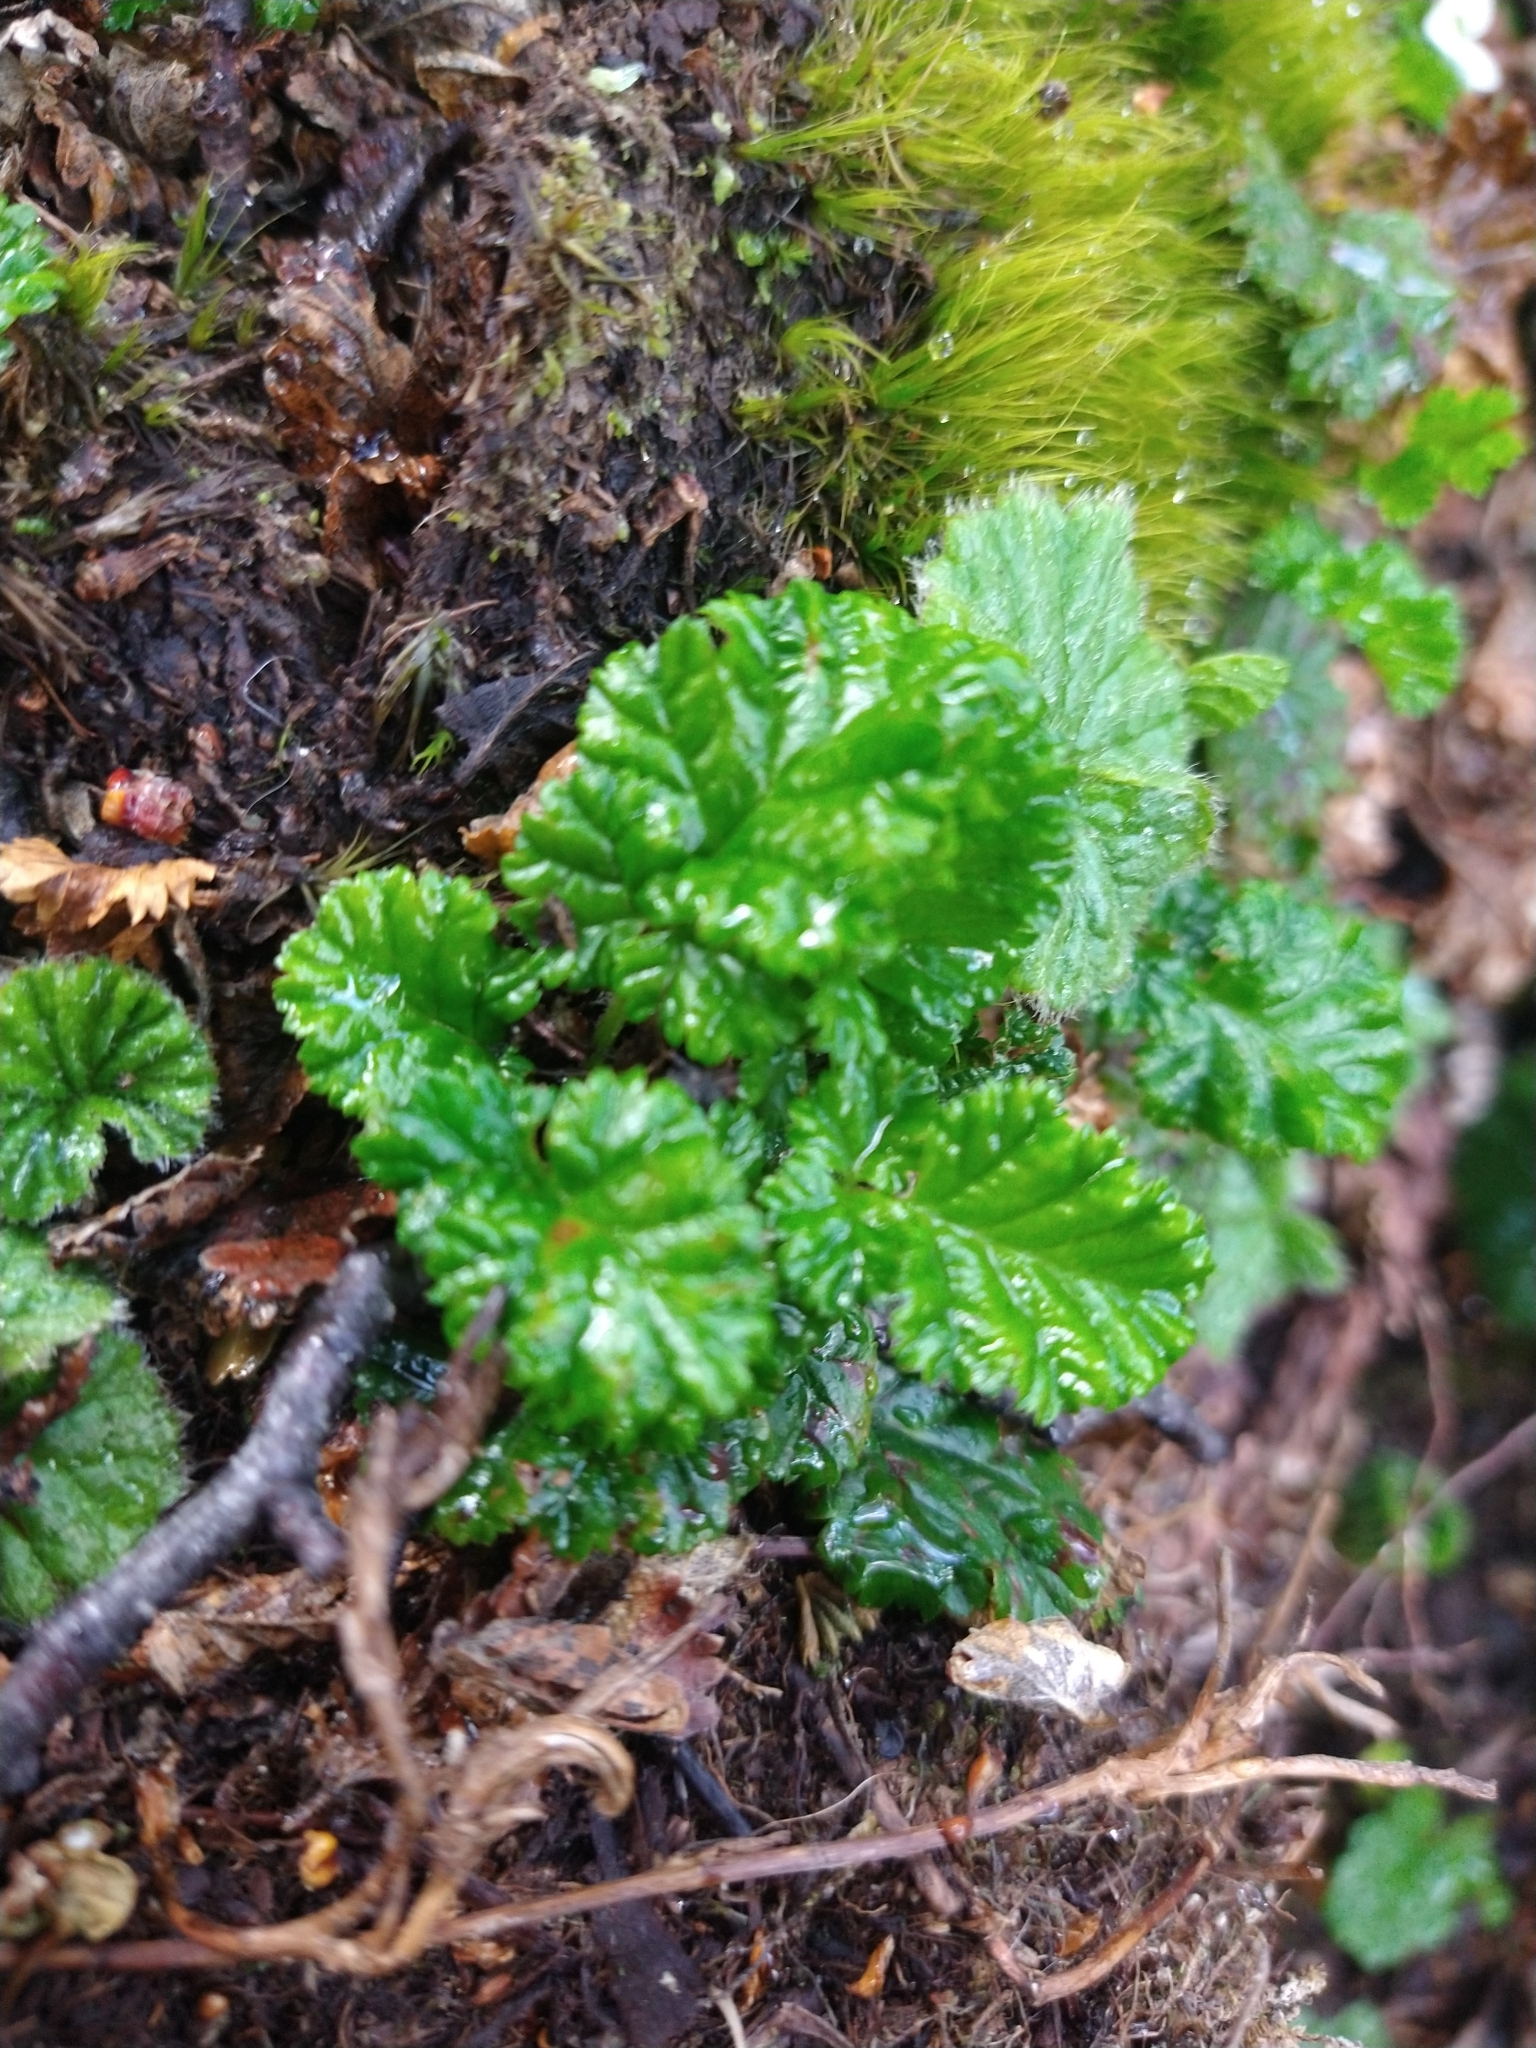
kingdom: Plantae
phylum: Tracheophyta
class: Magnoliopsida
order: Rosales
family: Rosaceae
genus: Rubus
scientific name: Rubus geoides
